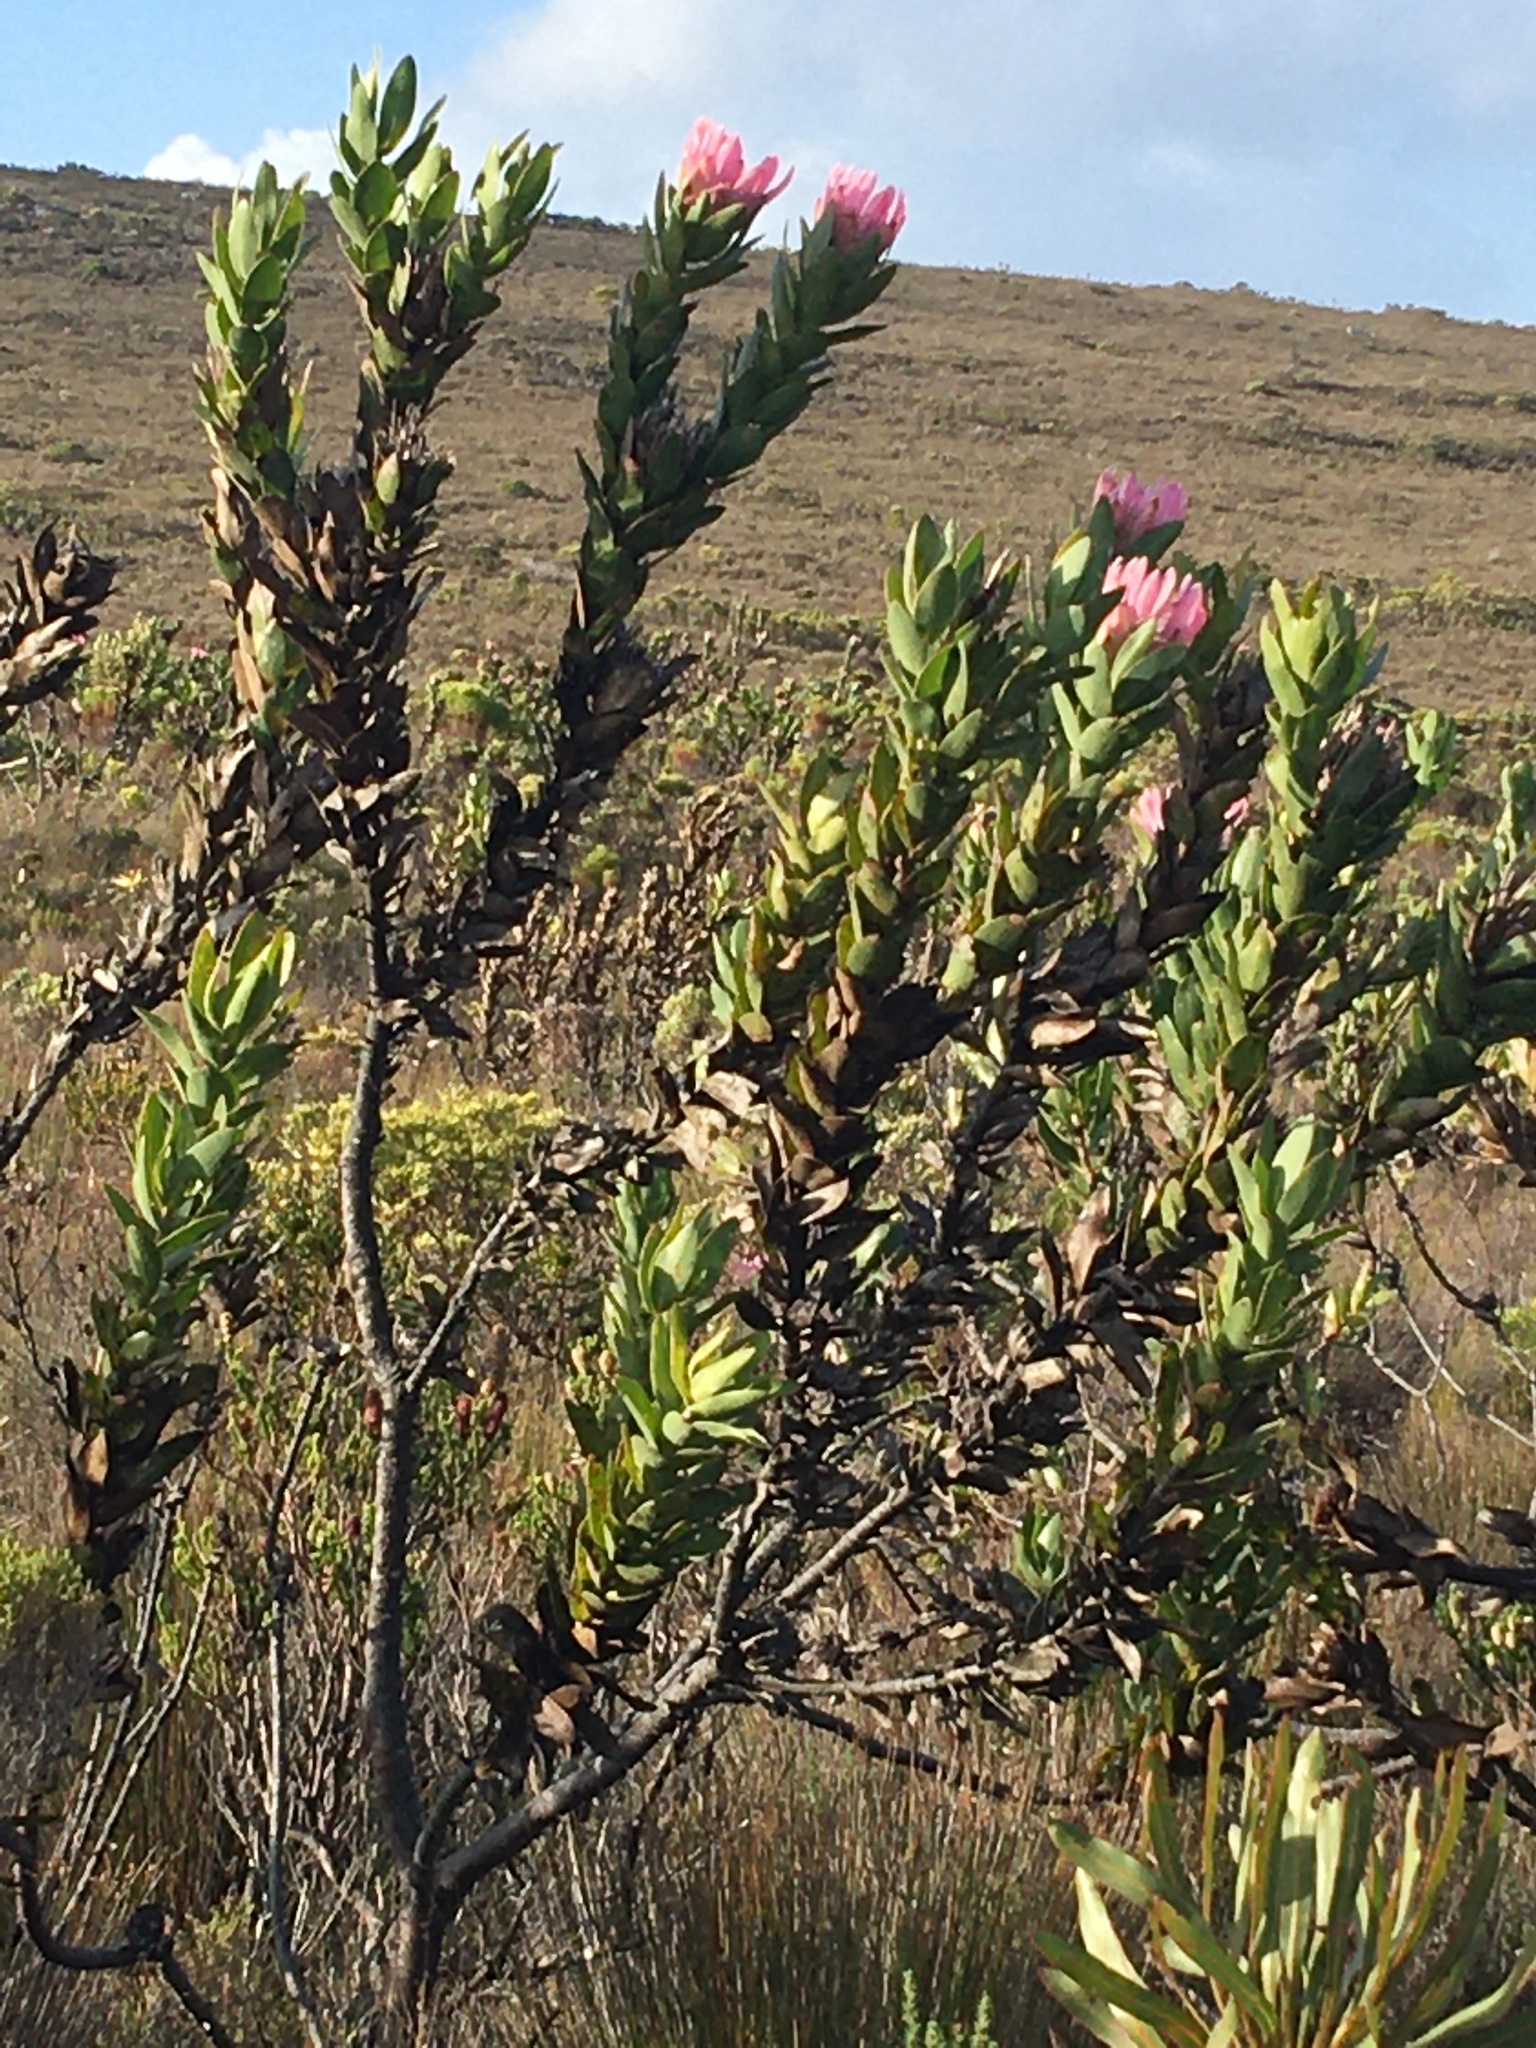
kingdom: Plantae
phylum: Tracheophyta
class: Magnoliopsida
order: Proteales
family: Proteaceae
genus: Protea
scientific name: Protea compacta
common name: Bot river protea
